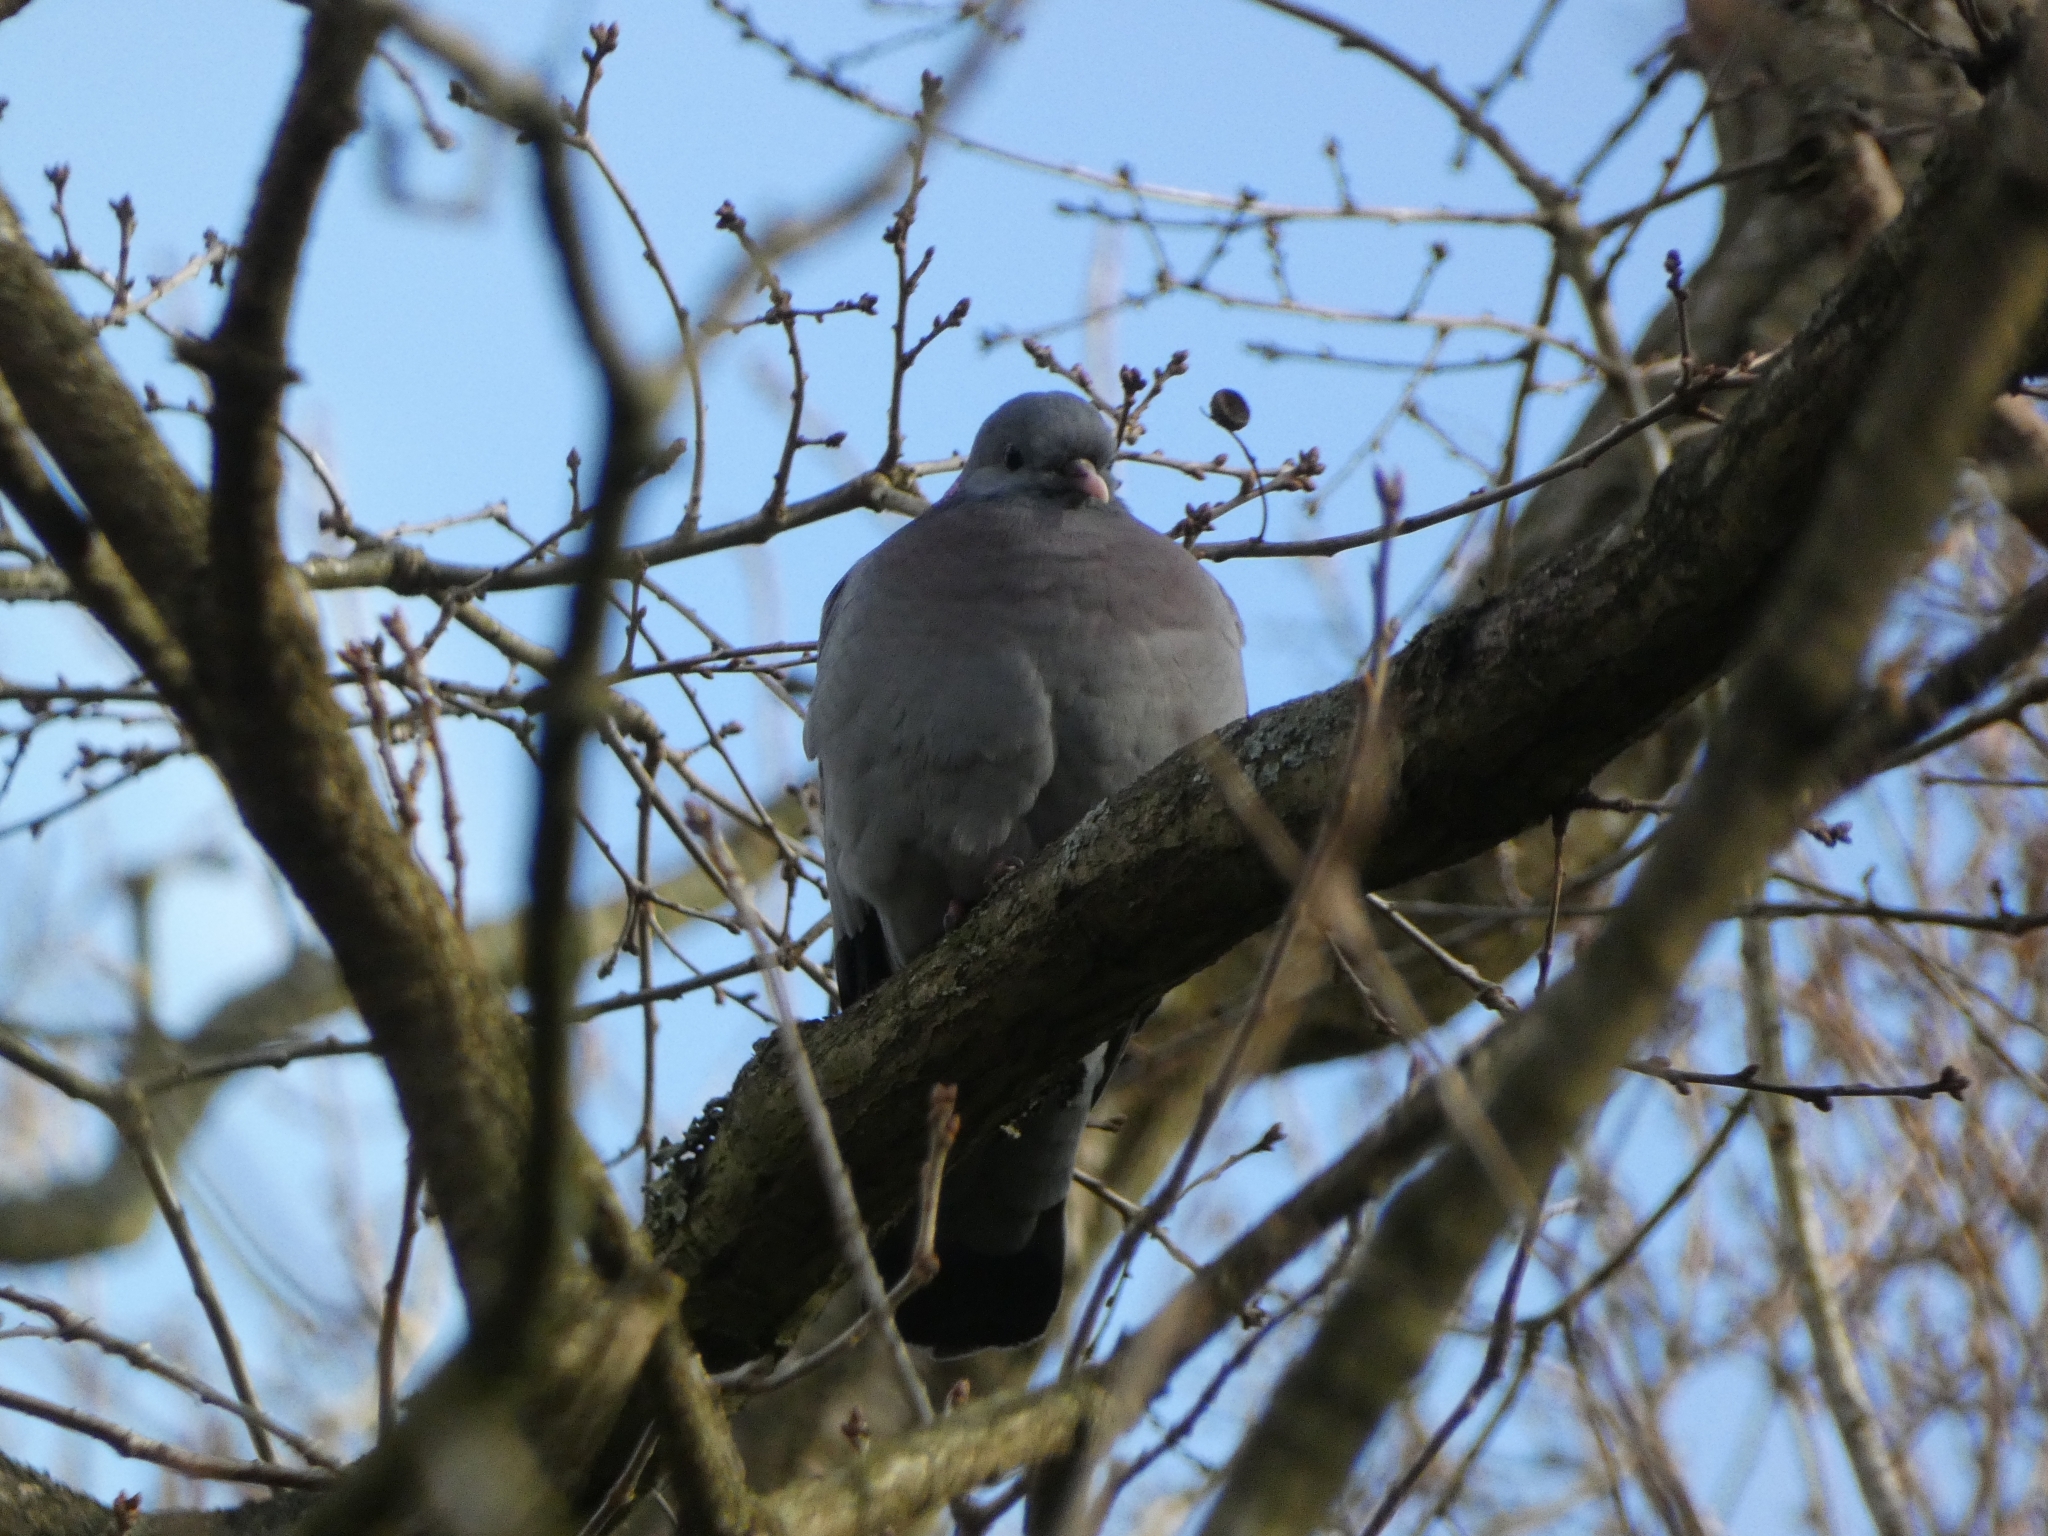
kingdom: Animalia
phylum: Chordata
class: Aves
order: Columbiformes
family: Columbidae
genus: Columba
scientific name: Columba oenas
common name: Stock dove
